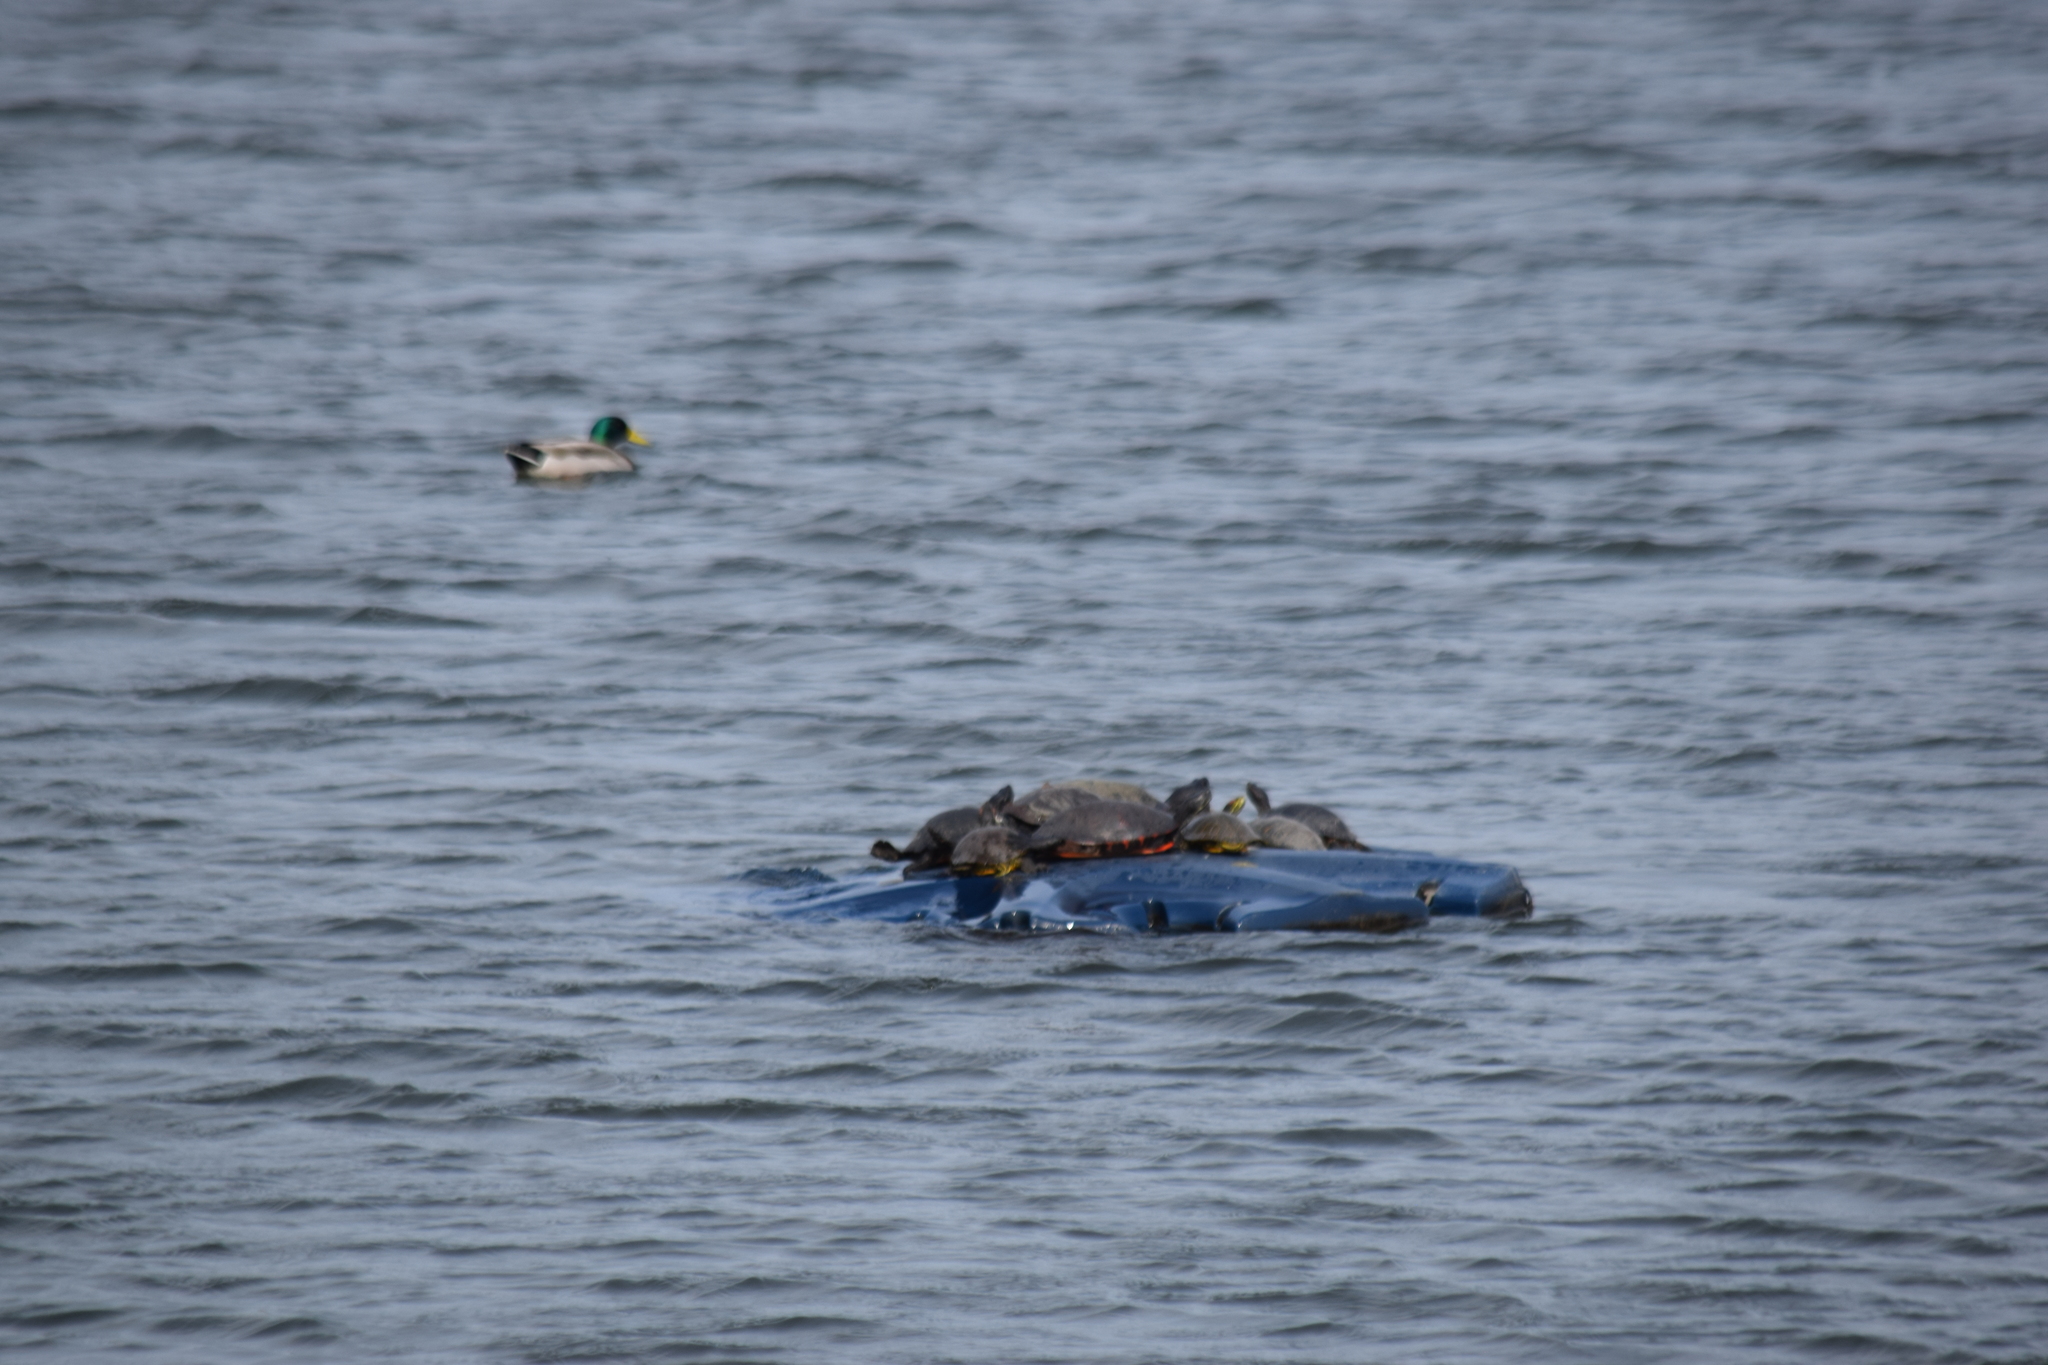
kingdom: Animalia
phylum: Chordata
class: Testudines
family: Emydidae
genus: Trachemys
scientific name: Trachemys scripta
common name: Slider
